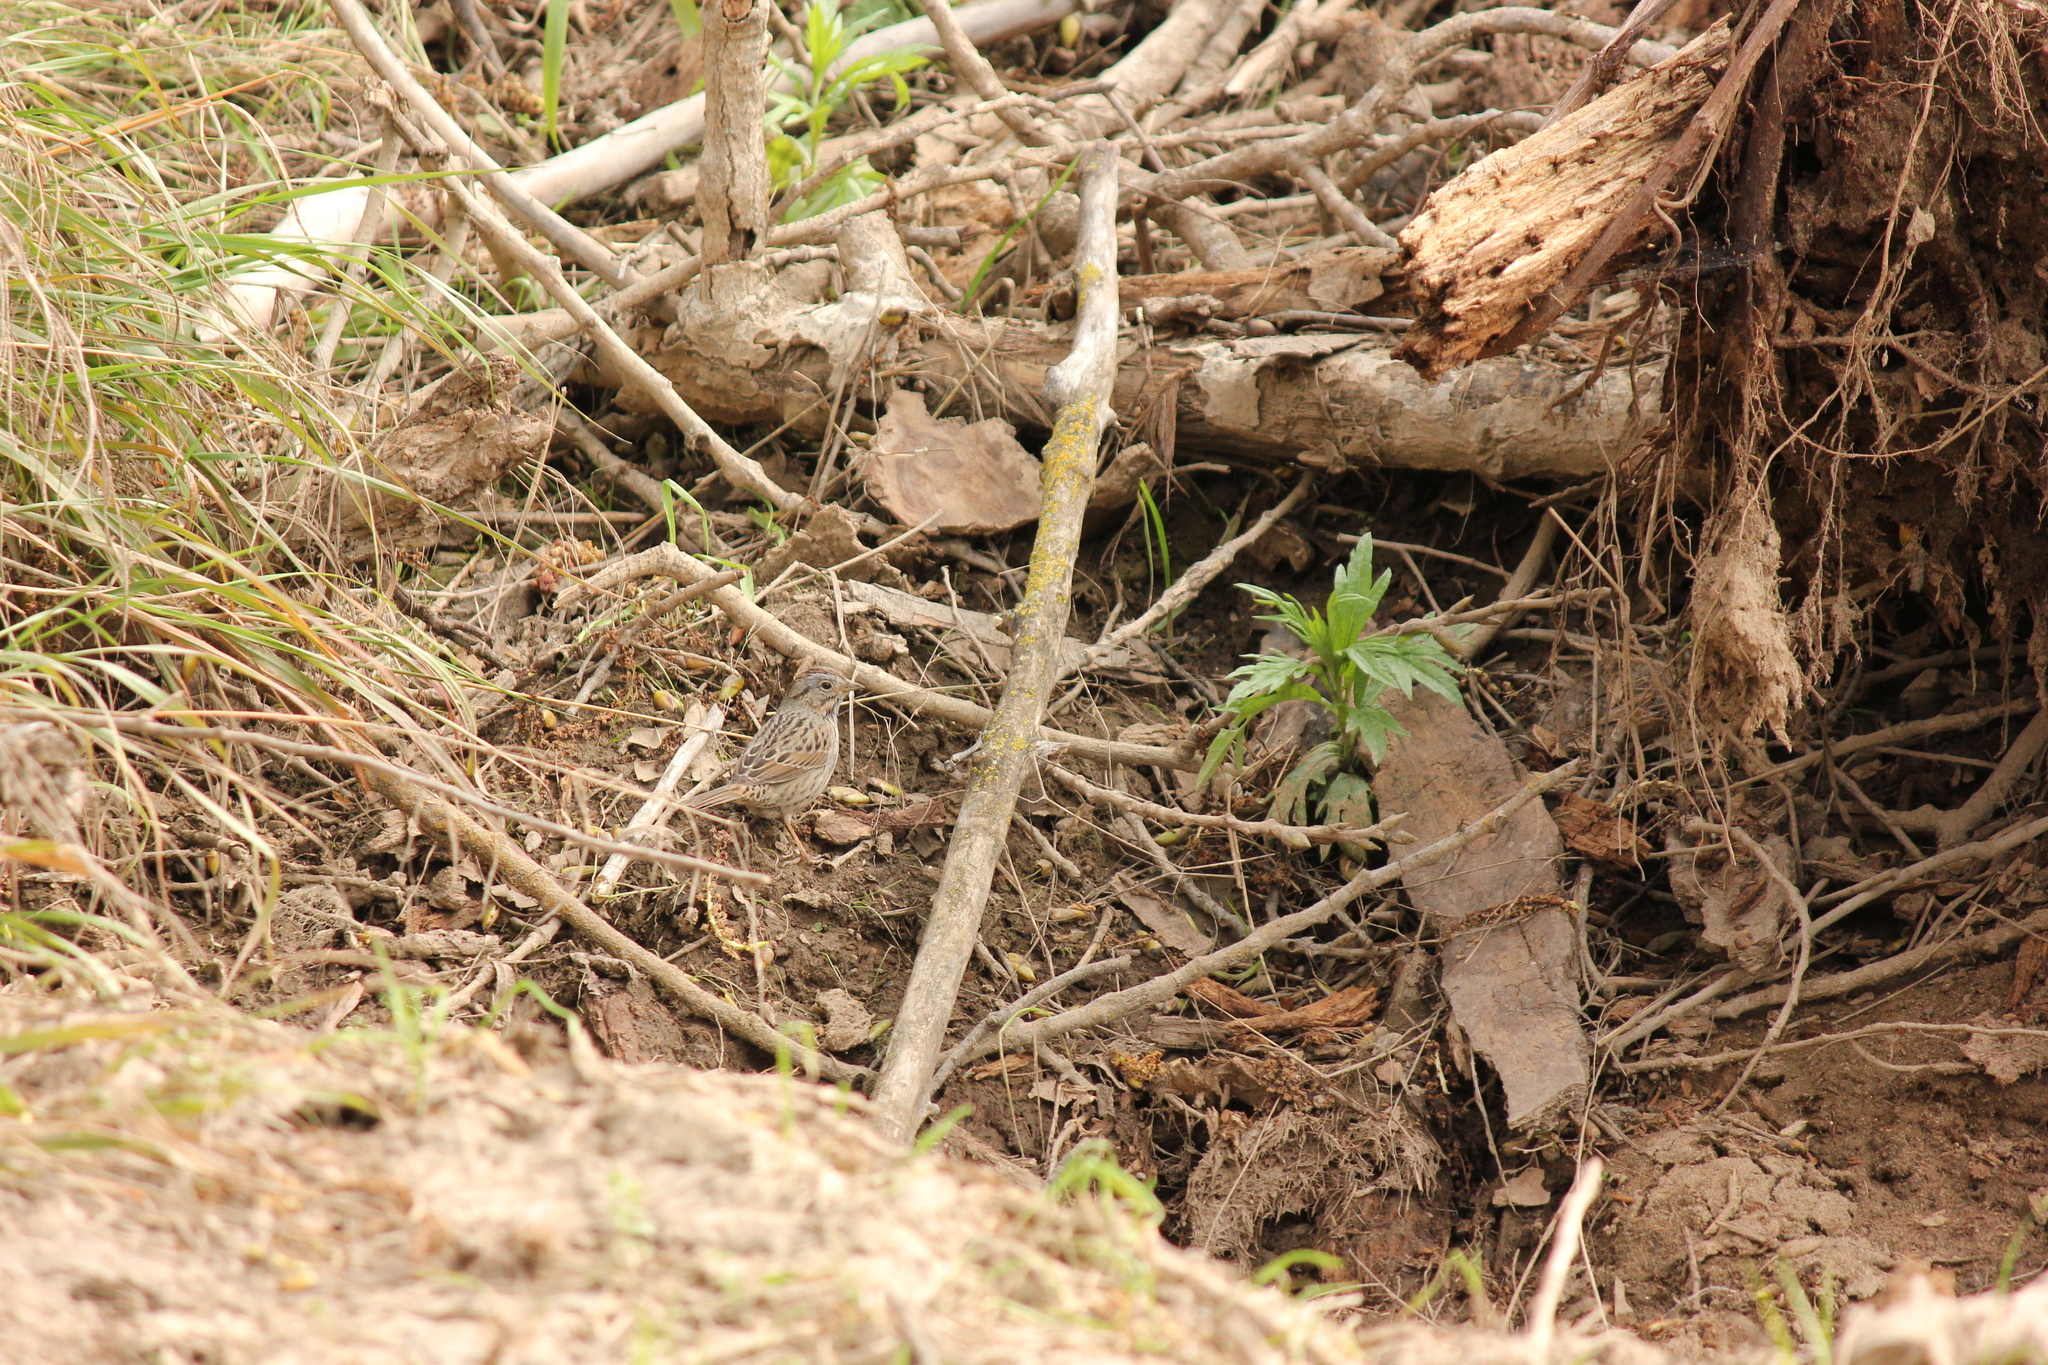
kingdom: Animalia
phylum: Chordata
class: Aves
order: Passeriformes
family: Passerellidae
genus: Melospiza
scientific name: Melospiza lincolnii
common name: Lincoln's sparrow
